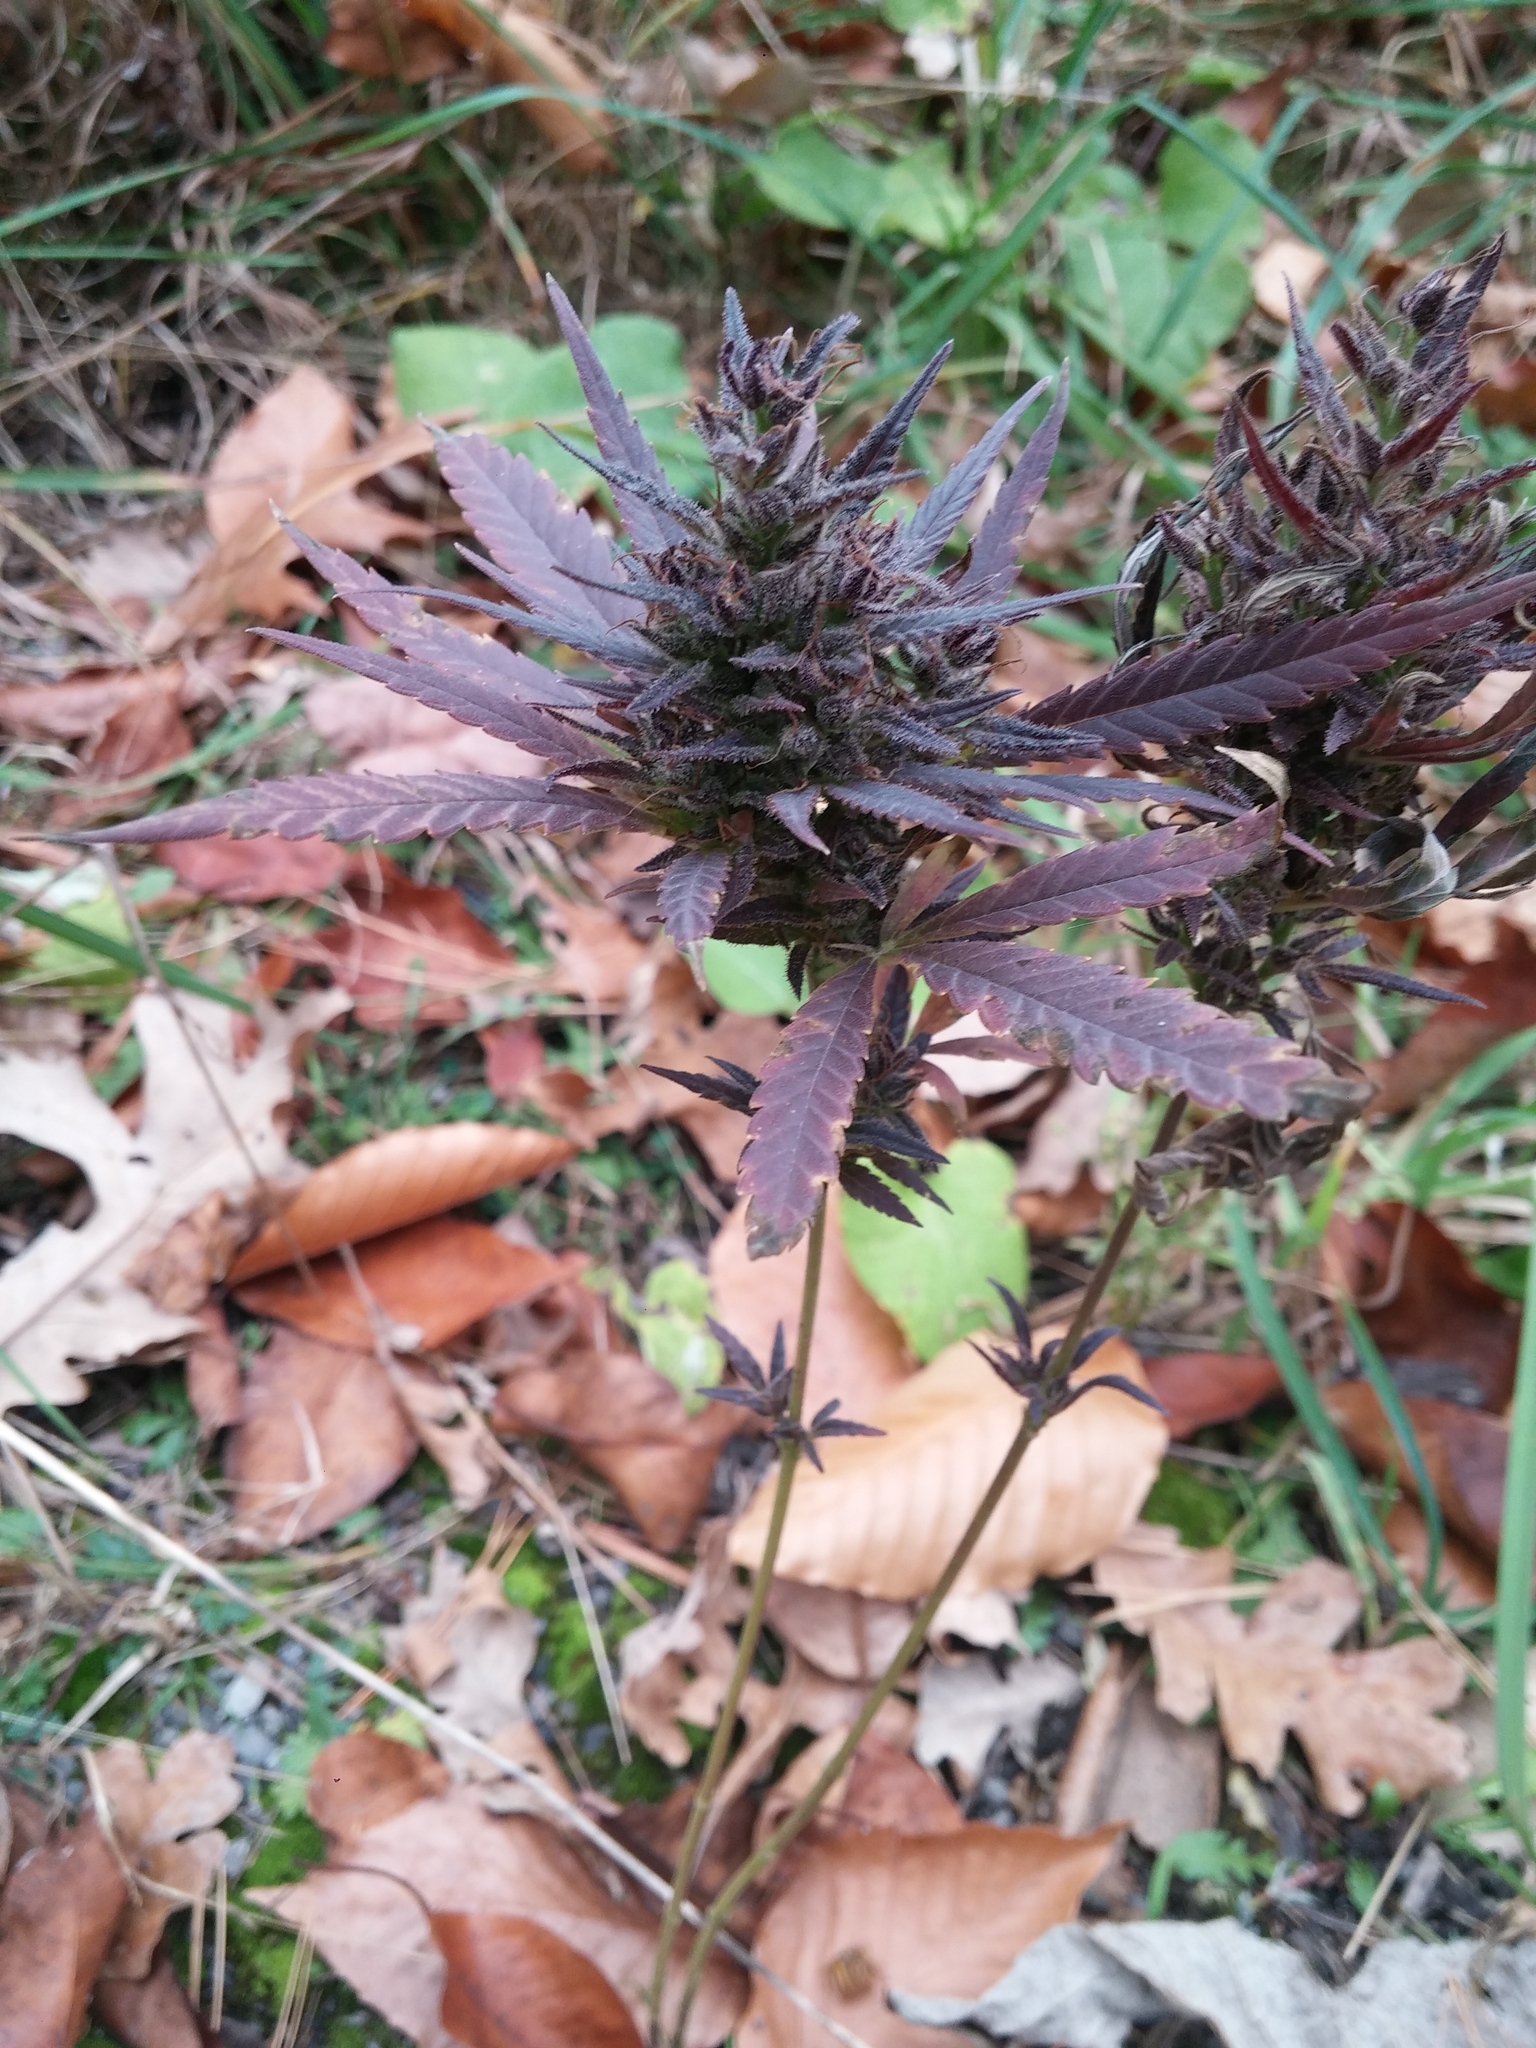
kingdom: Plantae
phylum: Tracheophyta
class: Magnoliopsida
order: Rosales
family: Cannabaceae
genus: Cannabis
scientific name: Cannabis sativa
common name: Hemp
